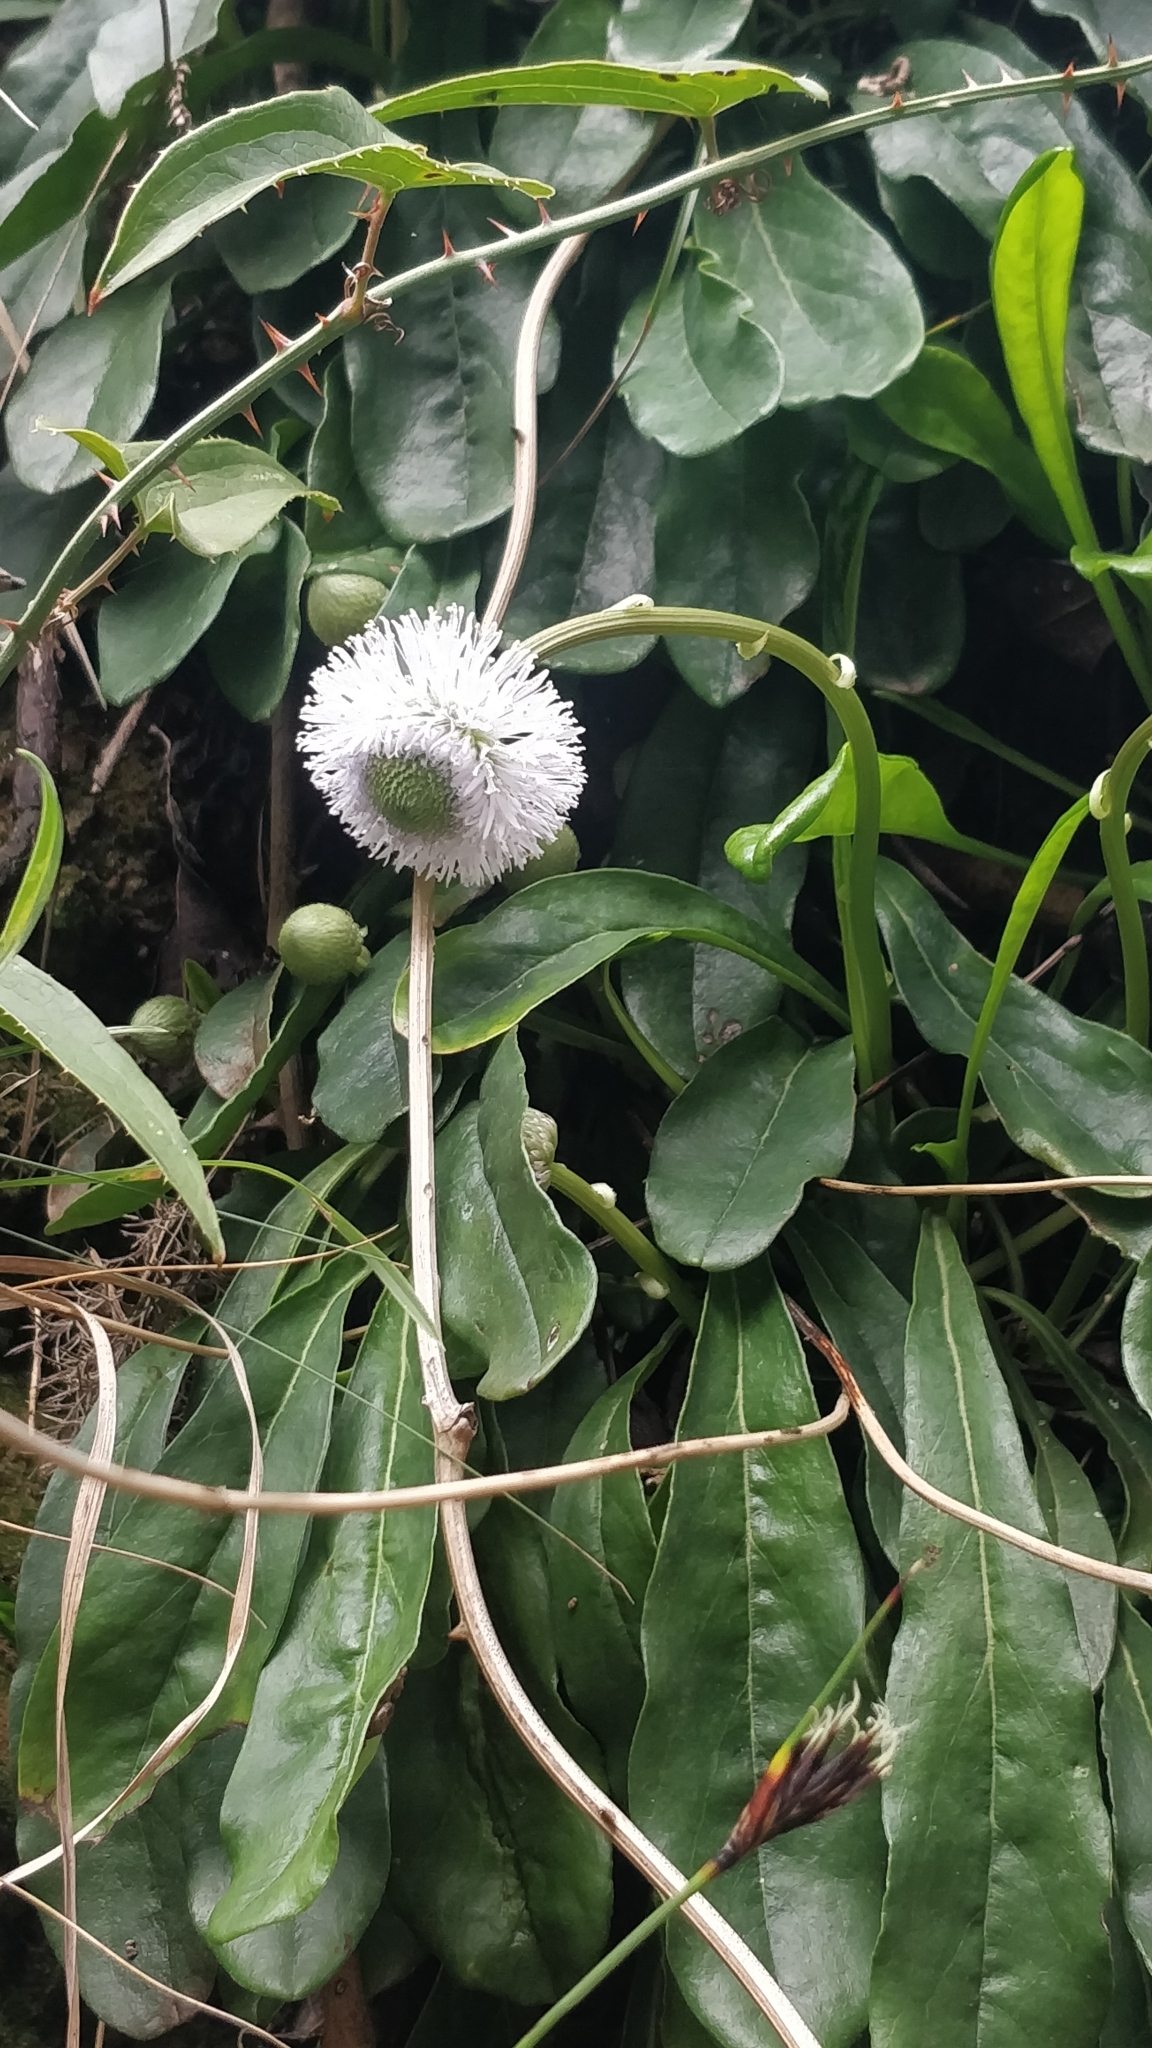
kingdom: Plantae
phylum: Tracheophyta
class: Magnoliopsida
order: Lamiales
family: Plantaginaceae
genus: Globularia
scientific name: Globularia nudicaulis
